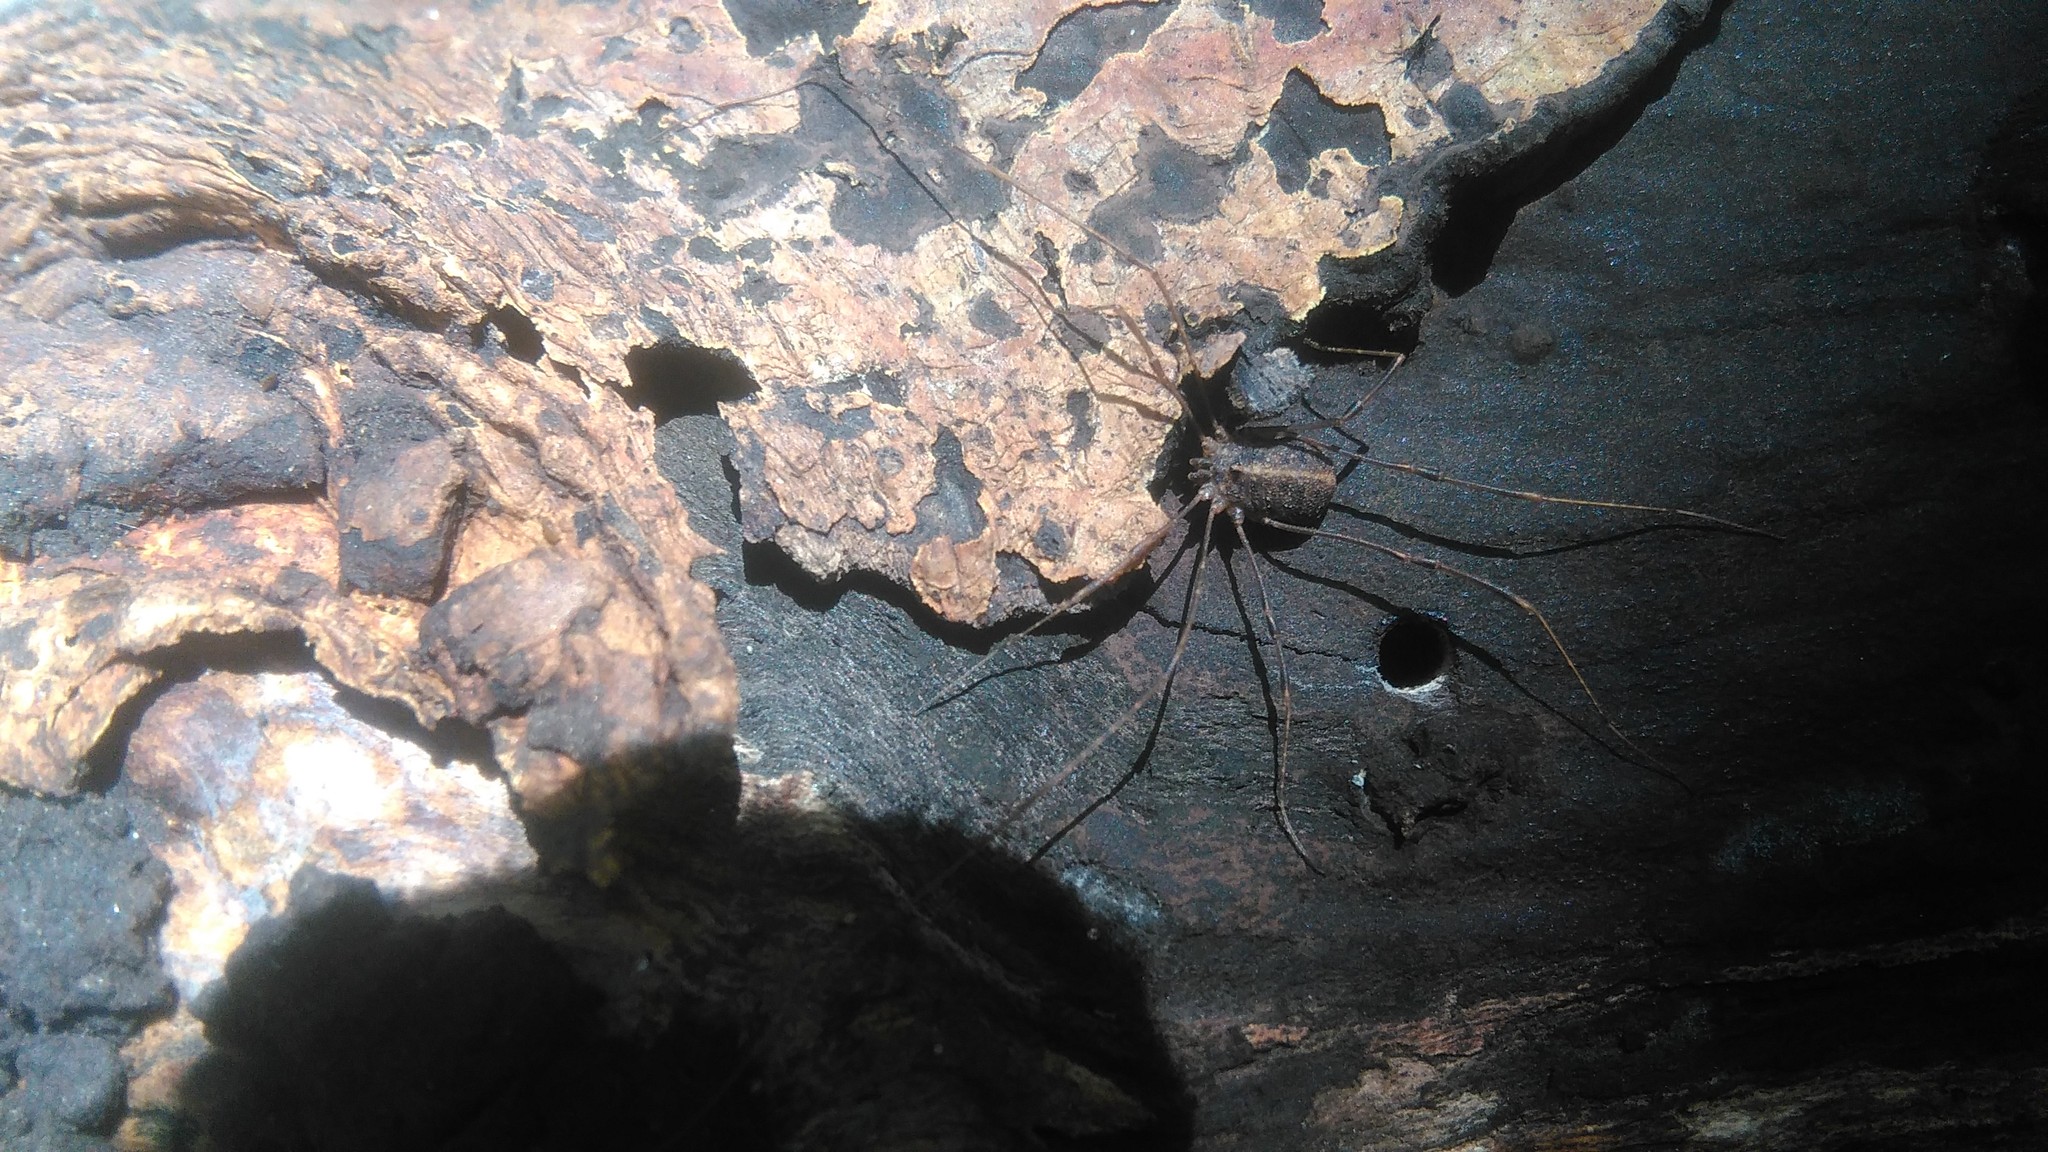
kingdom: Animalia
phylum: Arthropoda
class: Arachnida
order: Opiliones
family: Sclerosomatidae
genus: Holmbergiana
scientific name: Holmbergiana weyenberghii
